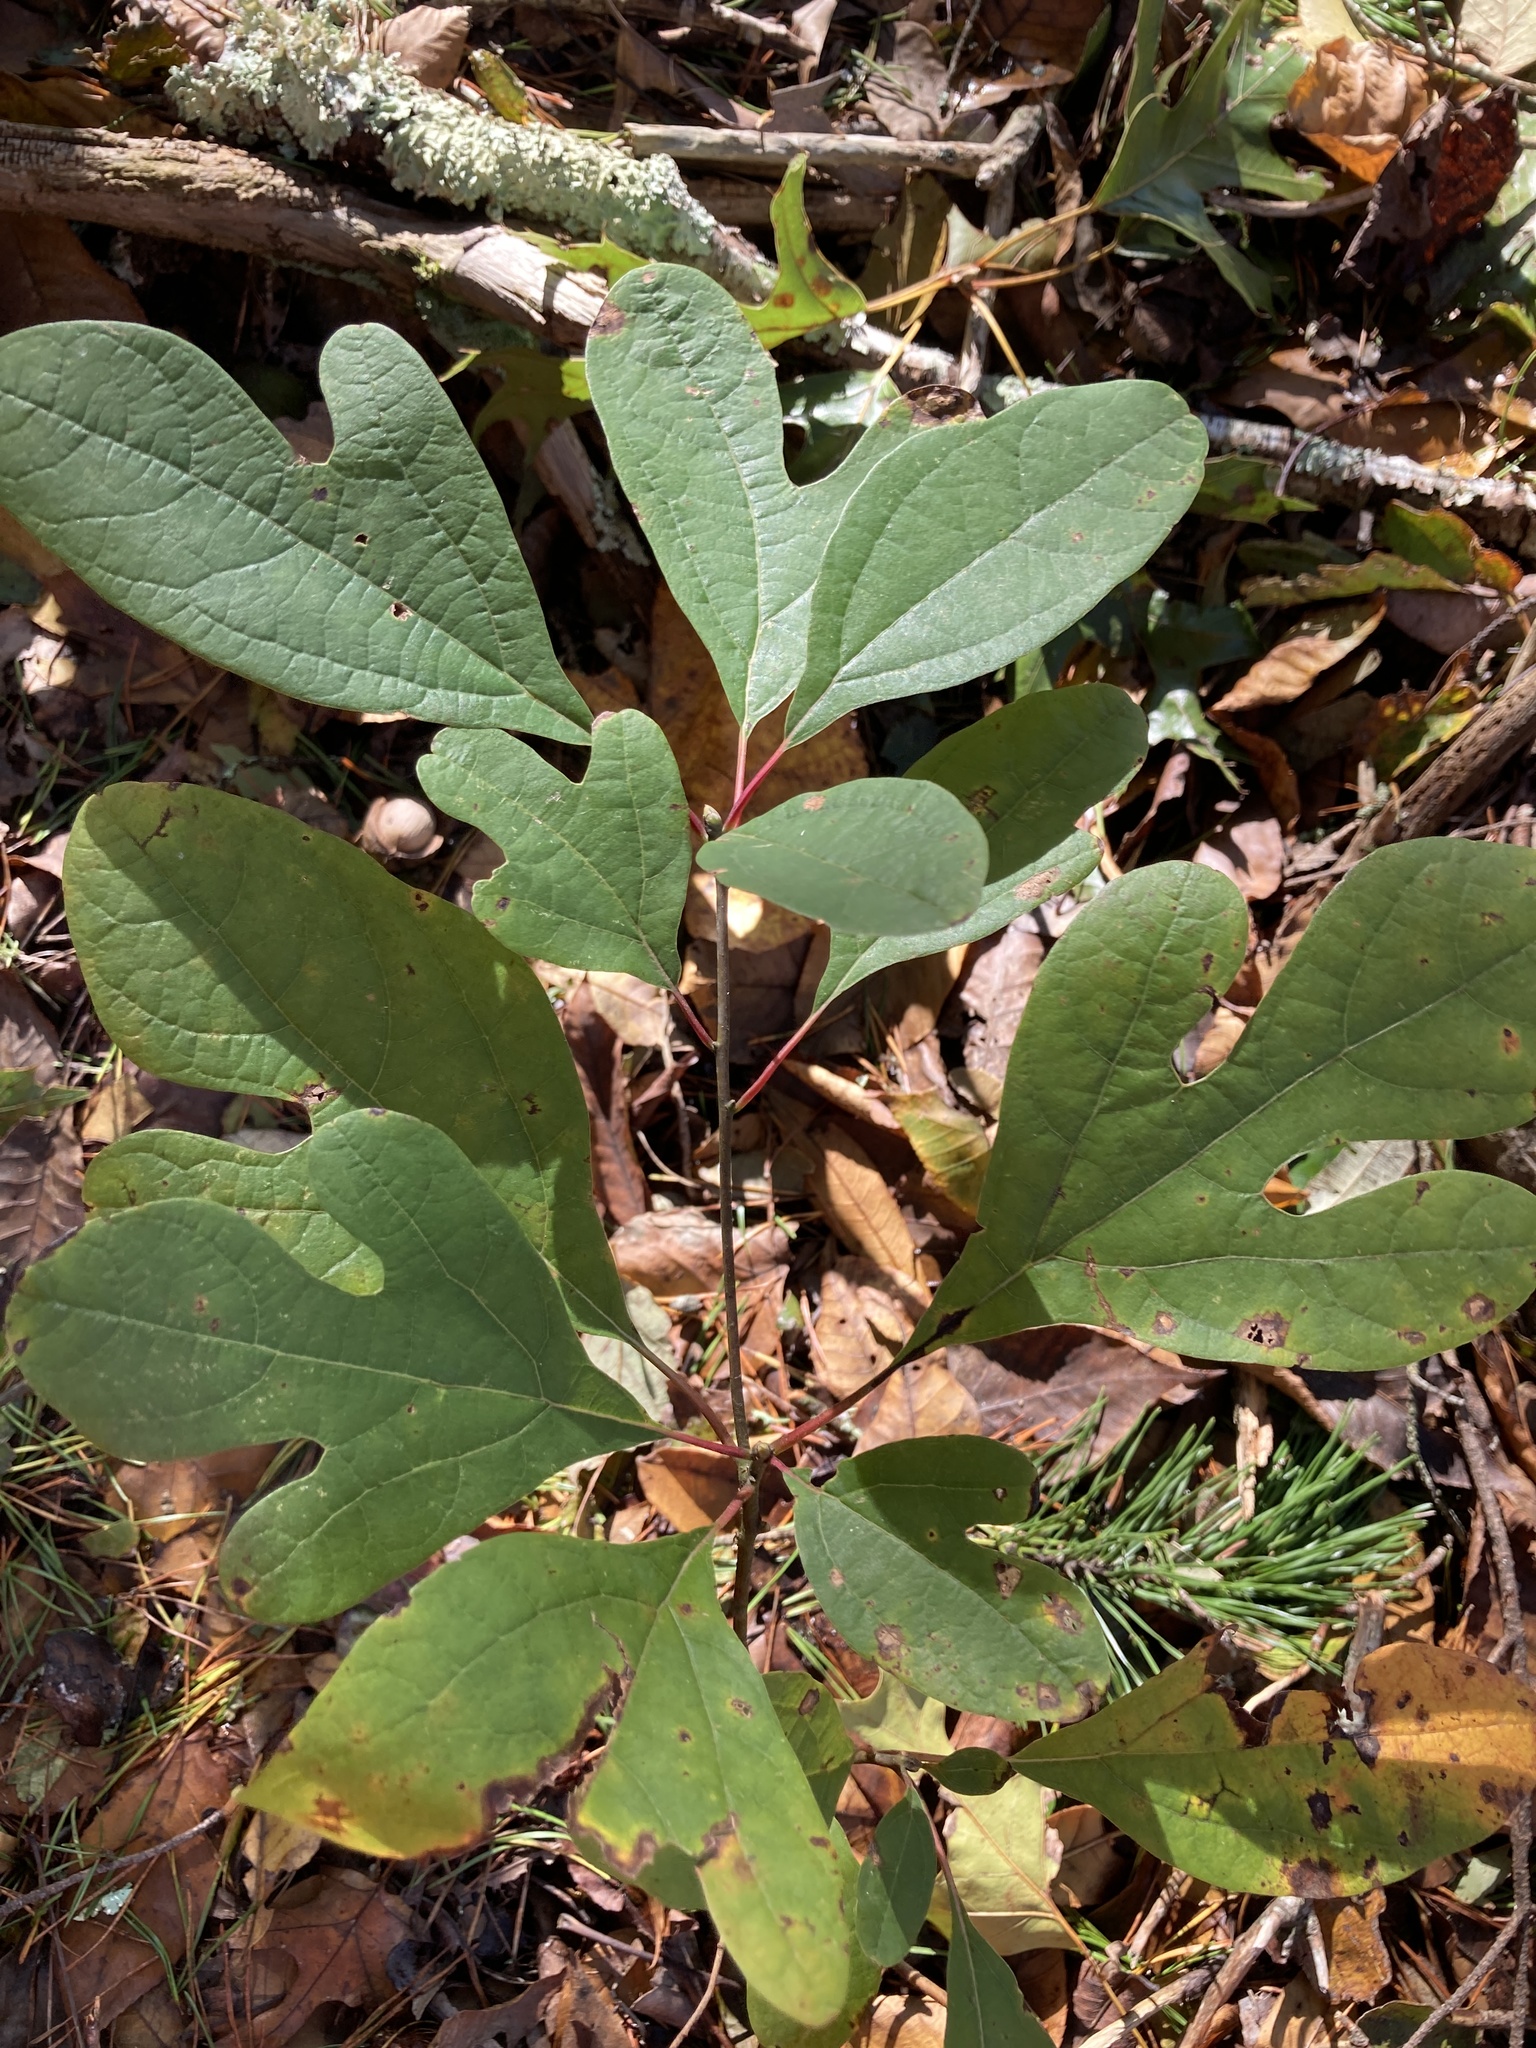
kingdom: Plantae
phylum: Tracheophyta
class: Magnoliopsida
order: Laurales
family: Lauraceae
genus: Sassafras
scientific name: Sassafras albidum
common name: Sassafras
